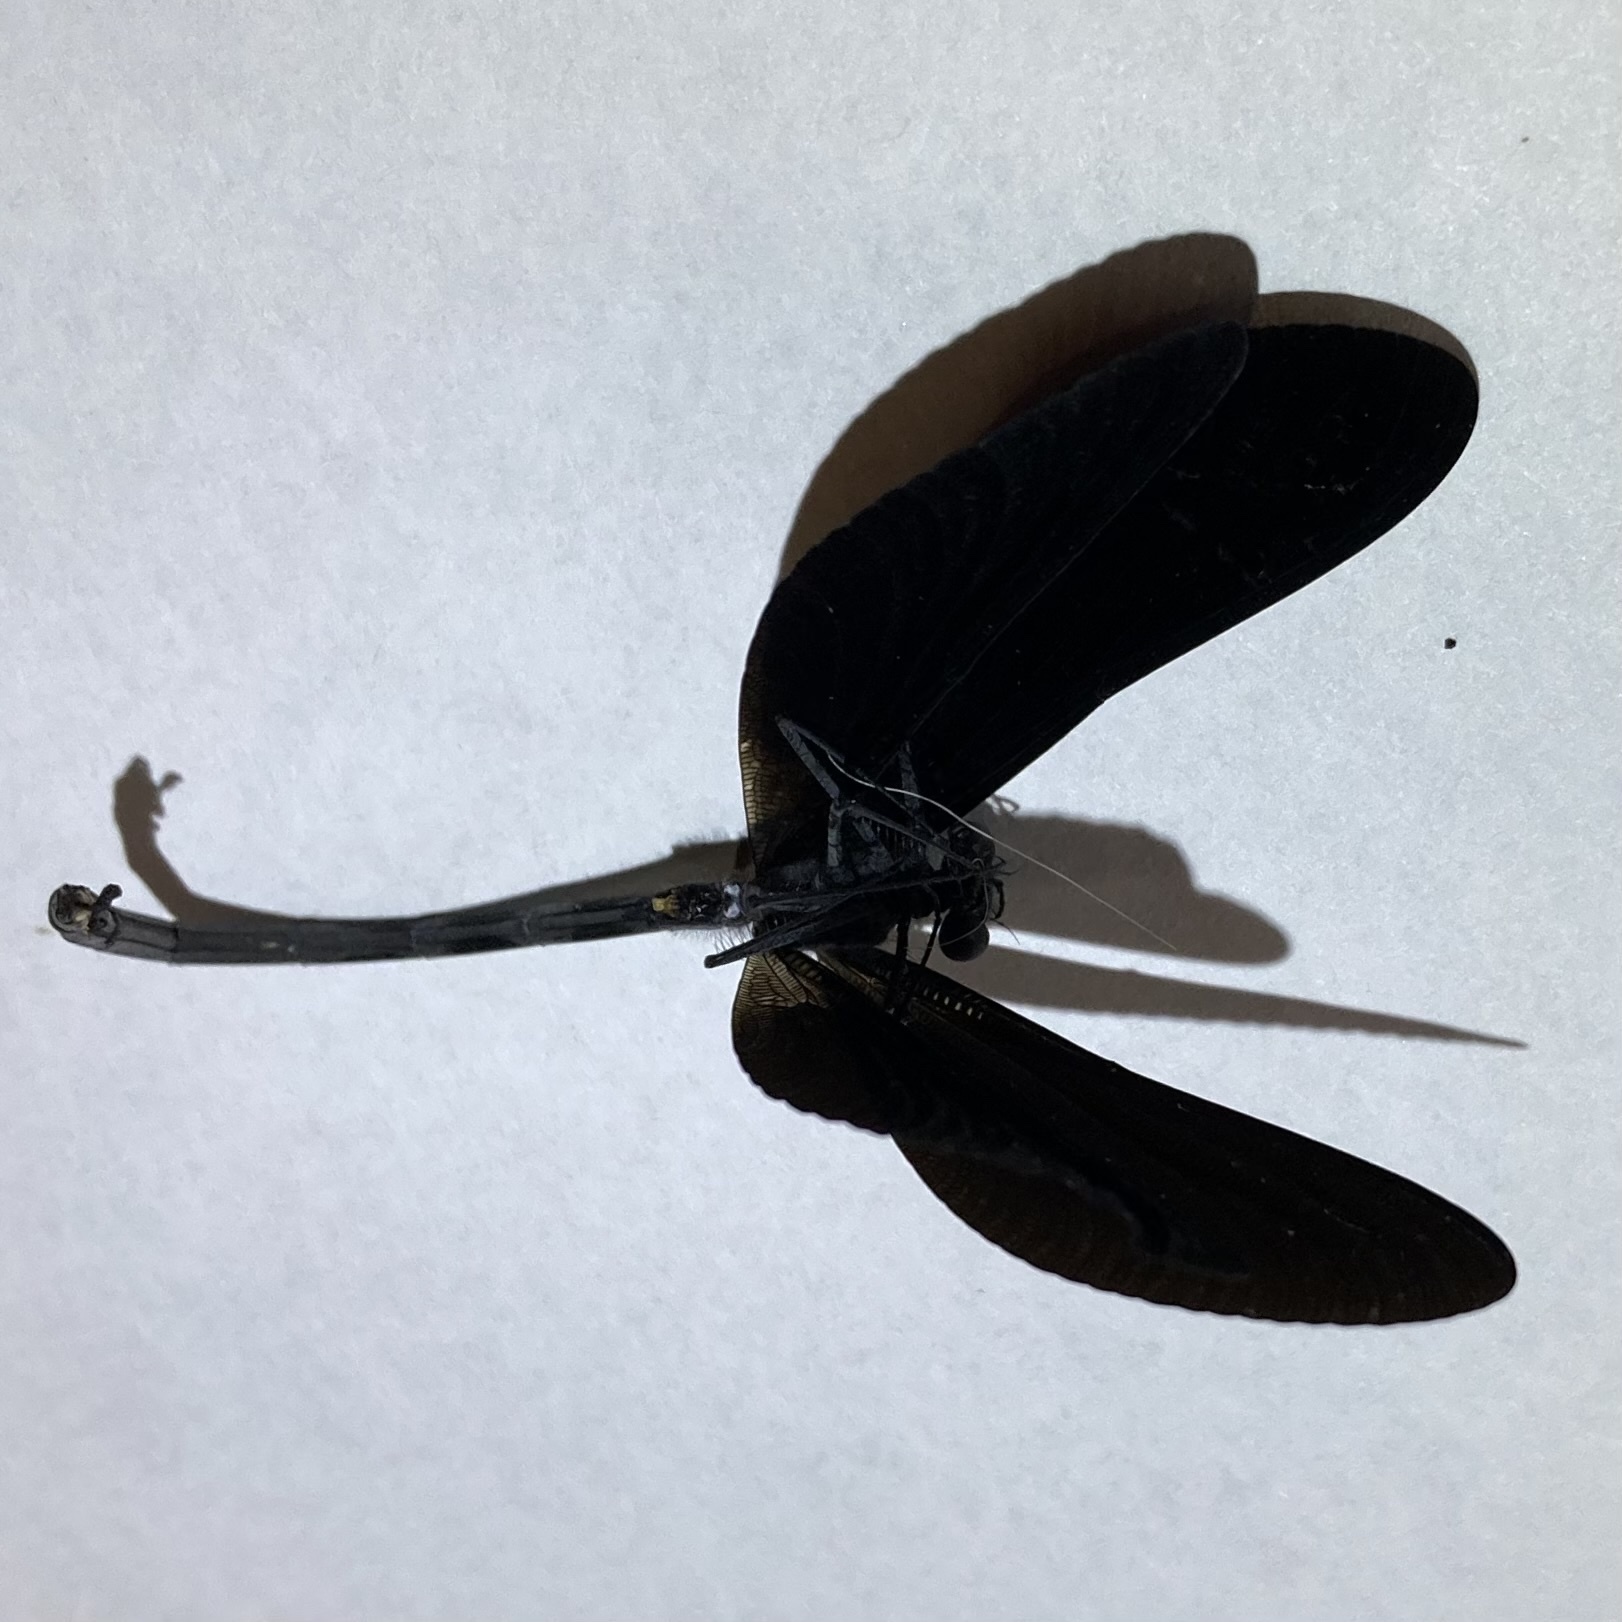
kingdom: Animalia
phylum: Arthropoda
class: Insecta
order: Odonata
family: Calopterygidae
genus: Calopteryx
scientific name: Calopteryx maculata
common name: Ebony jewelwing
